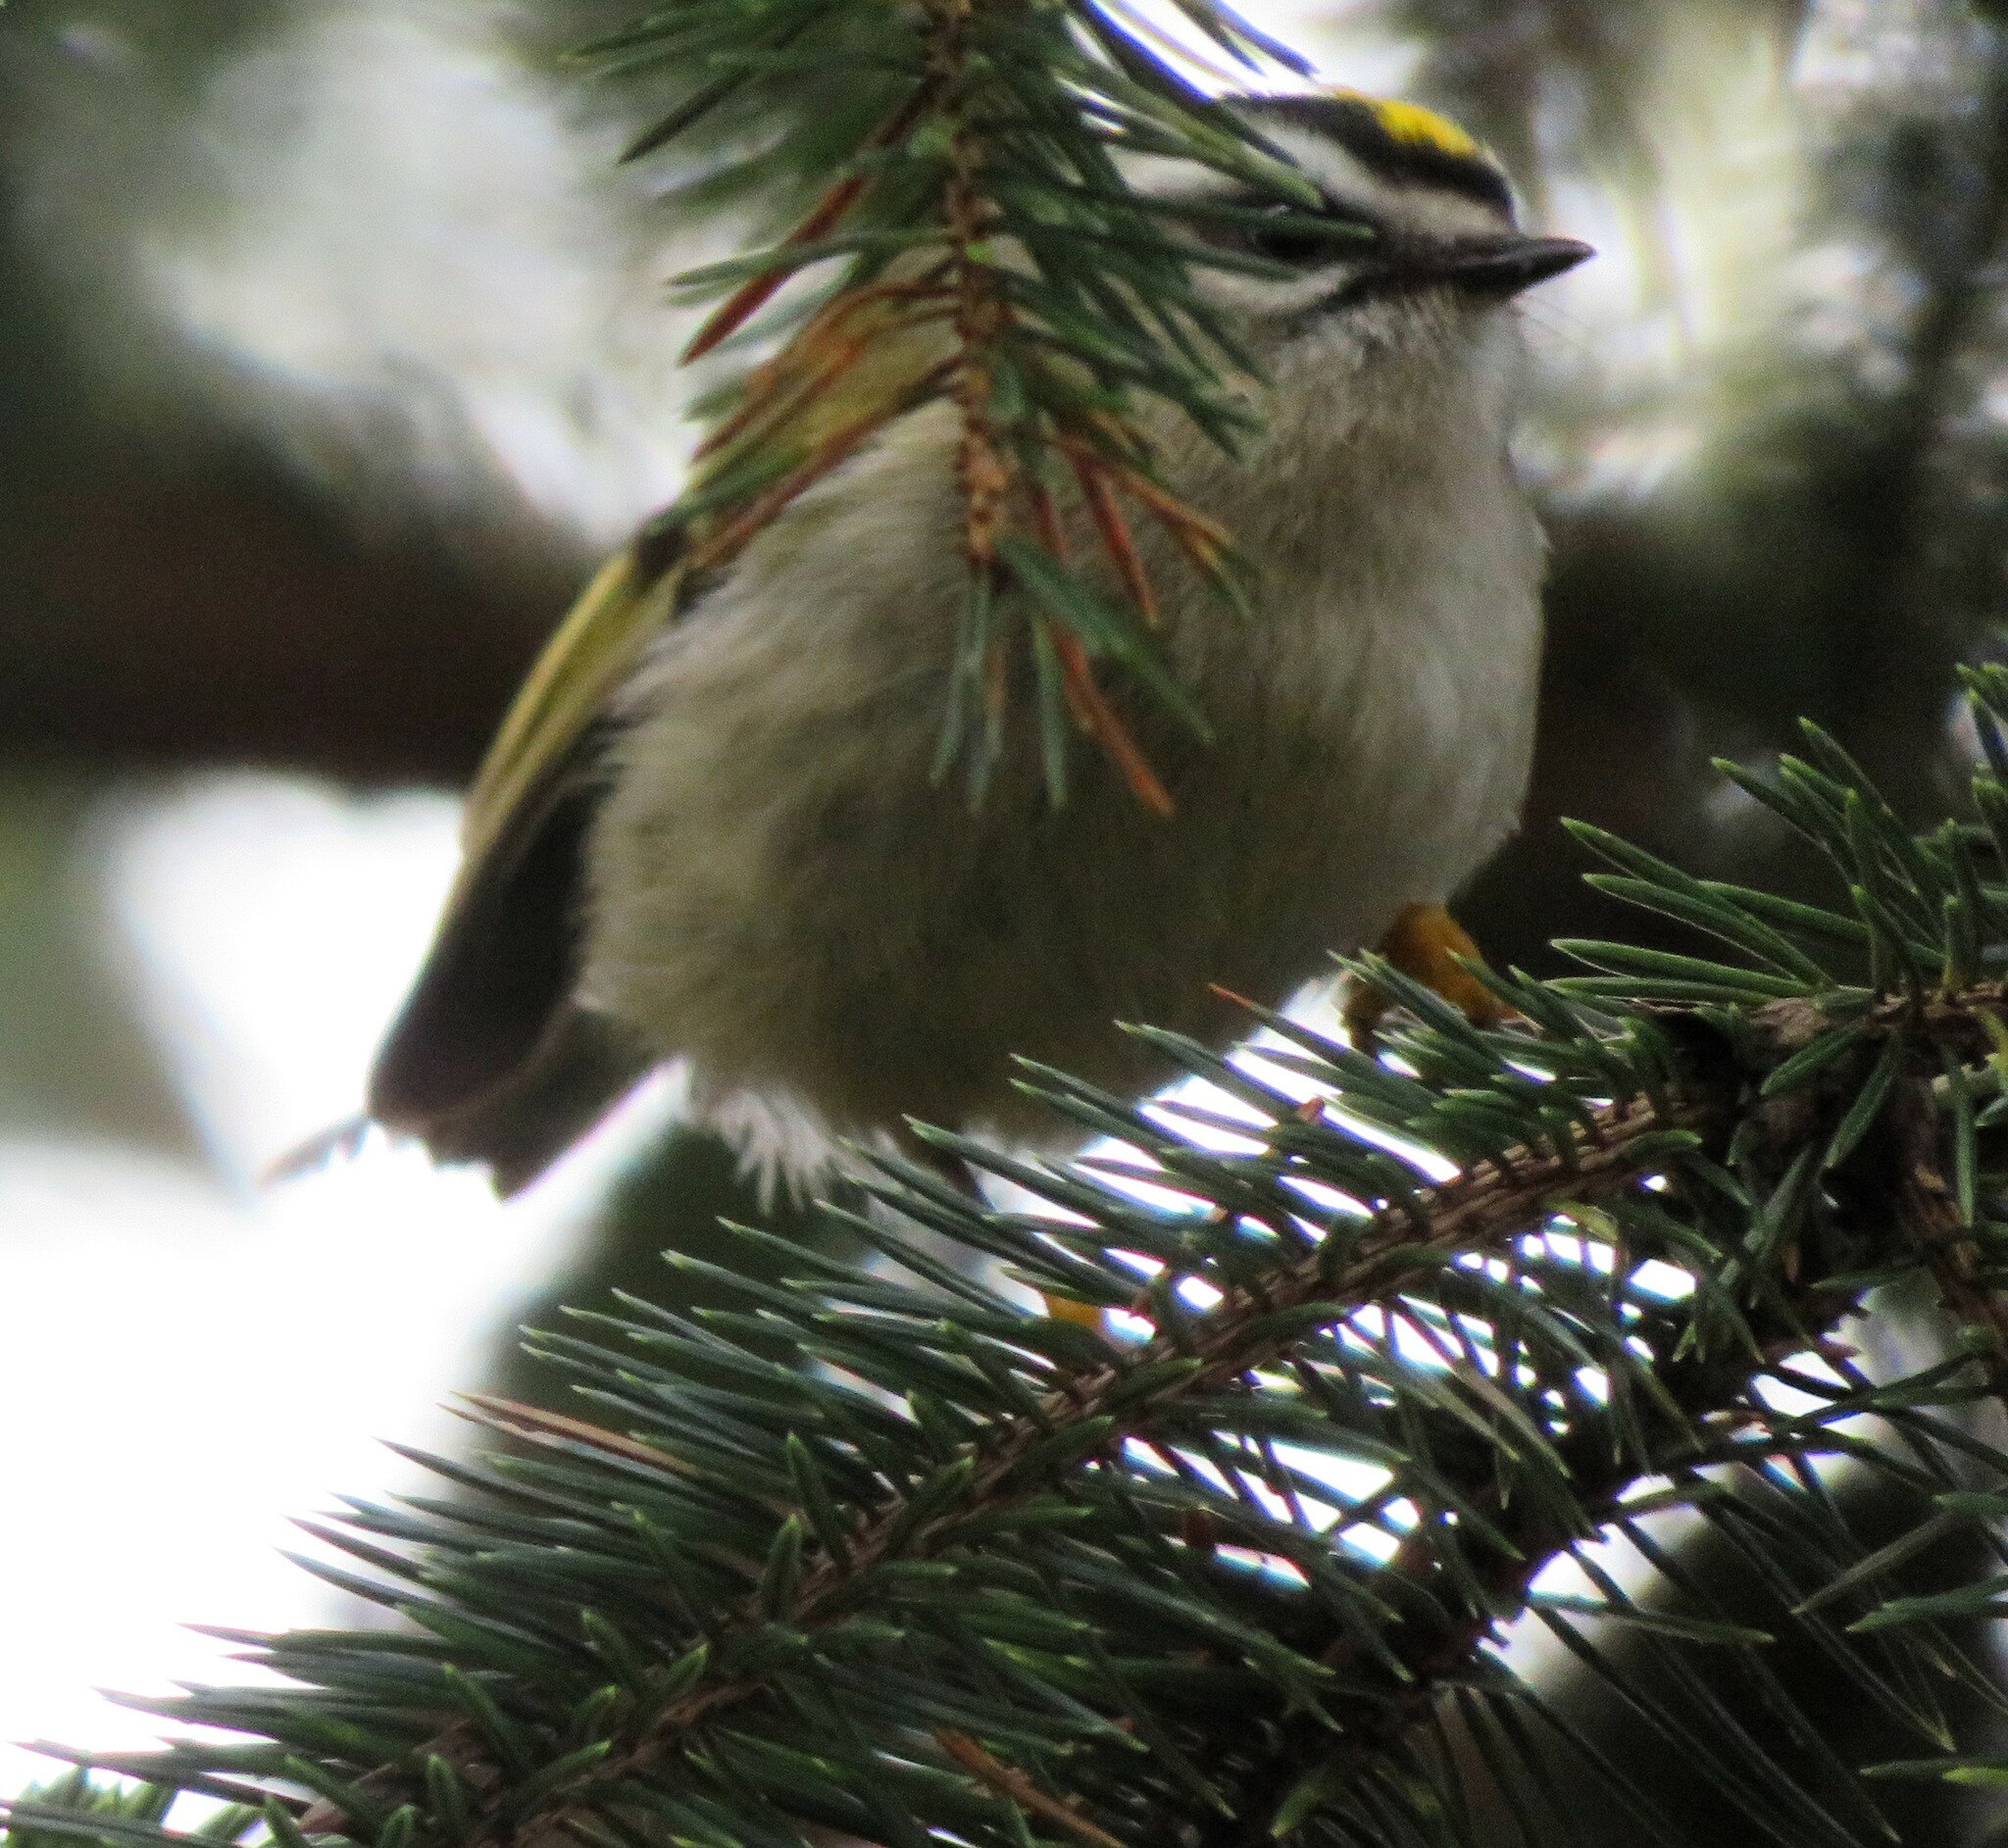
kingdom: Animalia
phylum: Chordata
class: Aves
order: Passeriformes
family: Regulidae
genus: Regulus
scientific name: Regulus satrapa
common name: Golden-crowned kinglet
